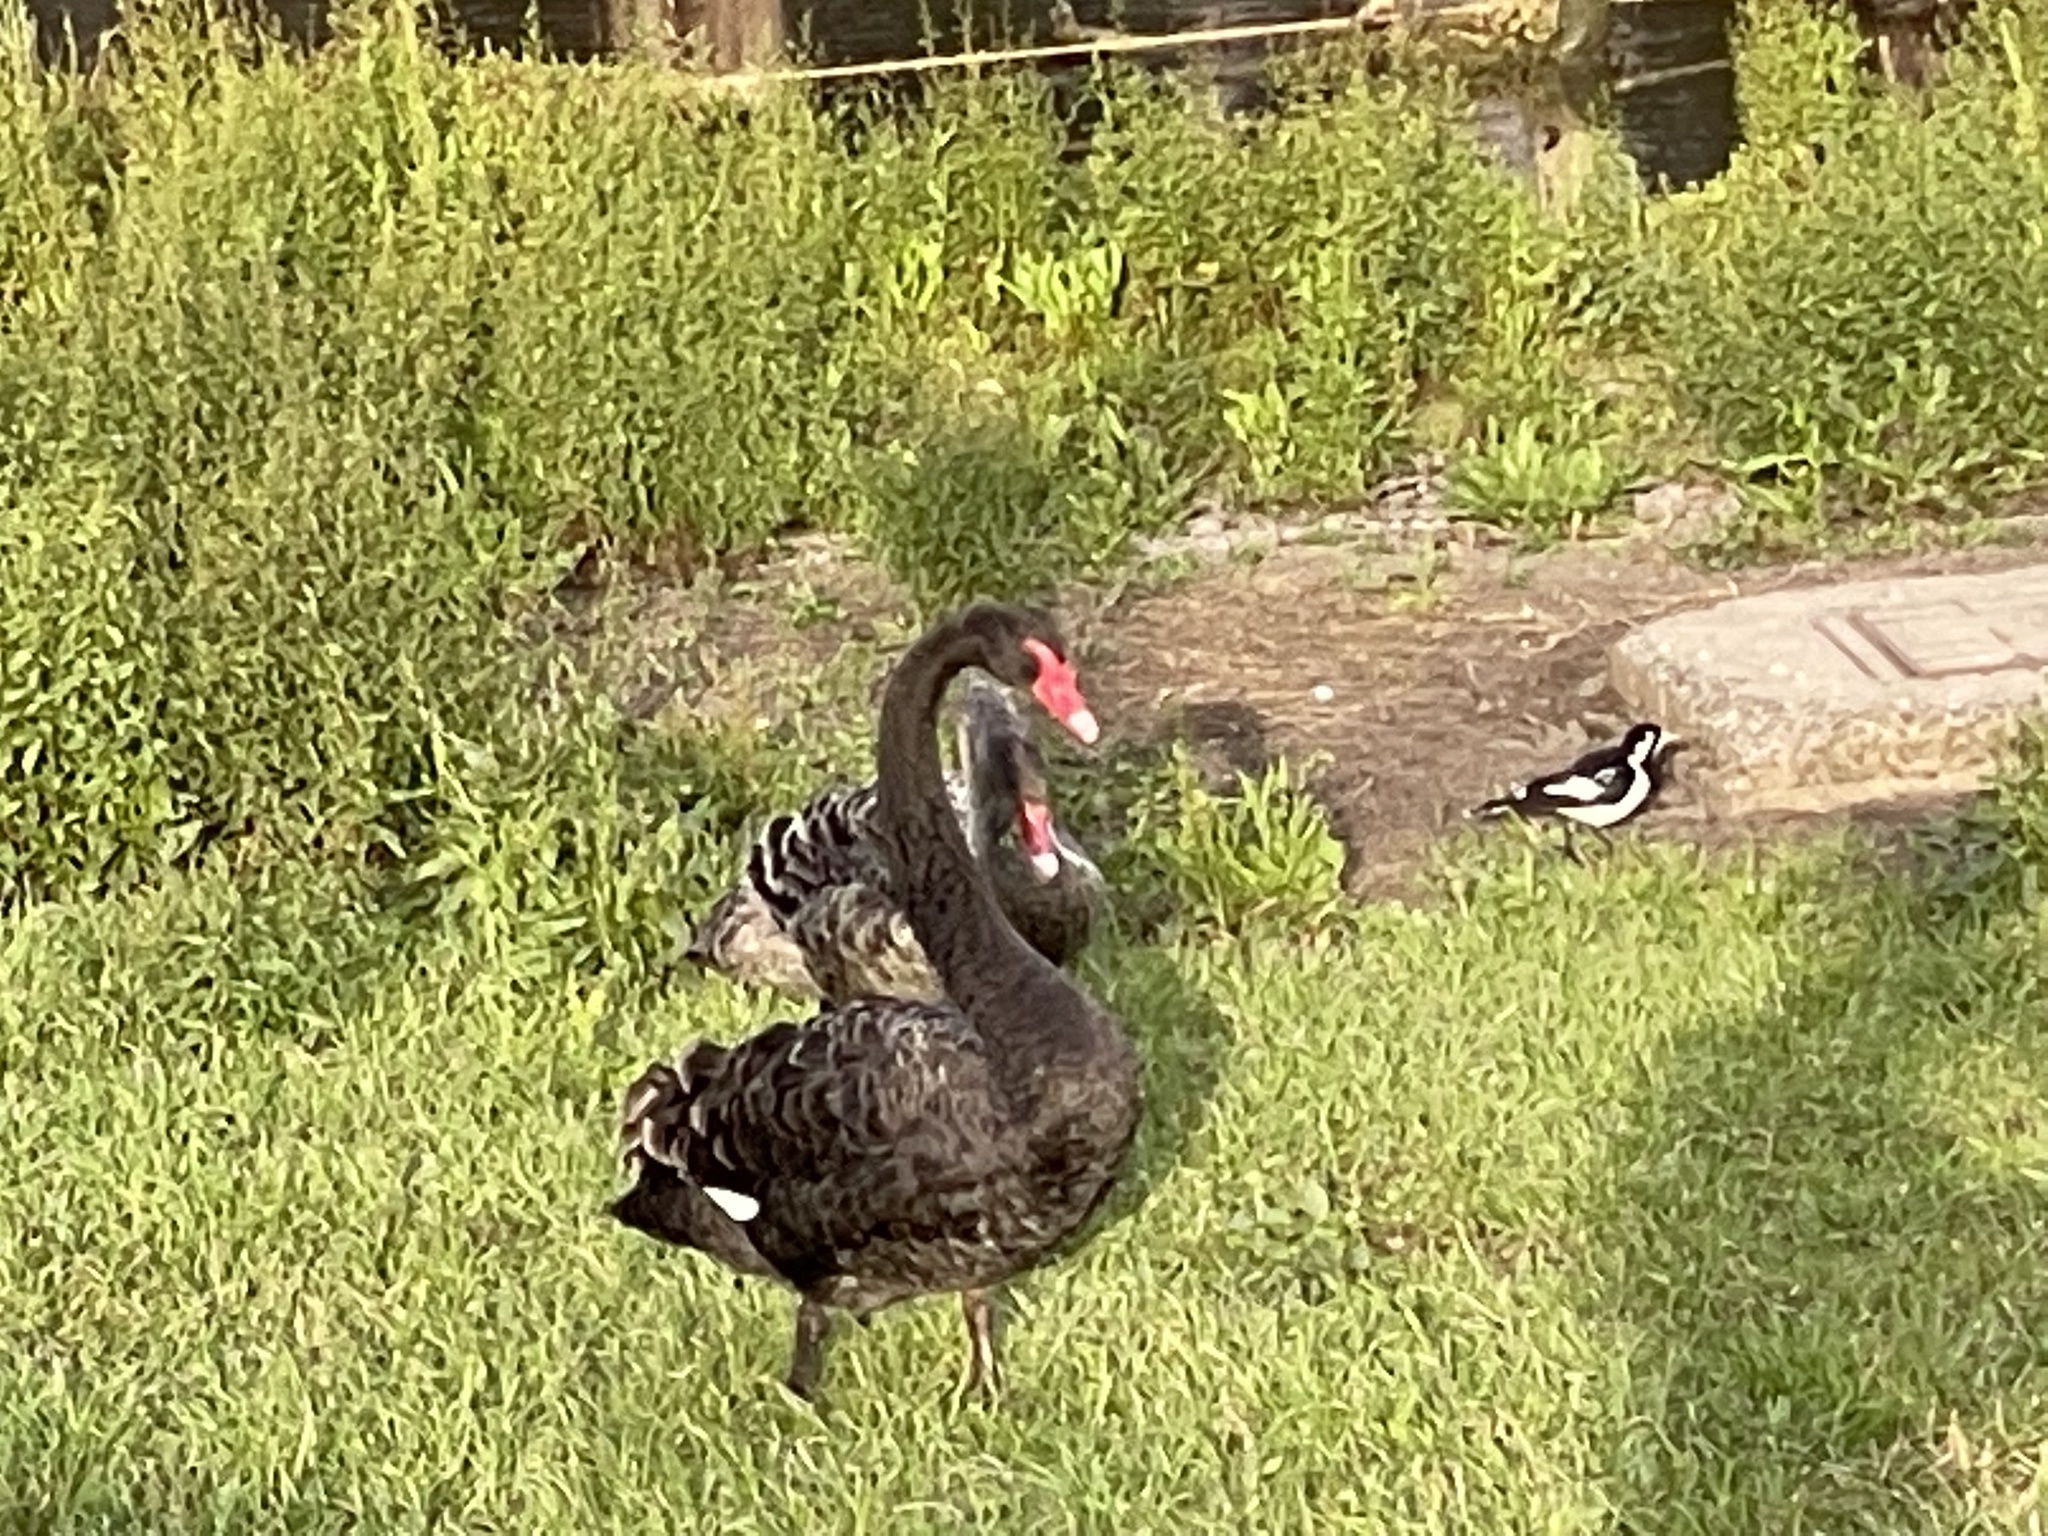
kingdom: Animalia
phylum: Chordata
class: Aves
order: Anseriformes
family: Anatidae
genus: Cygnus
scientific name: Cygnus atratus
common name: Black swan
